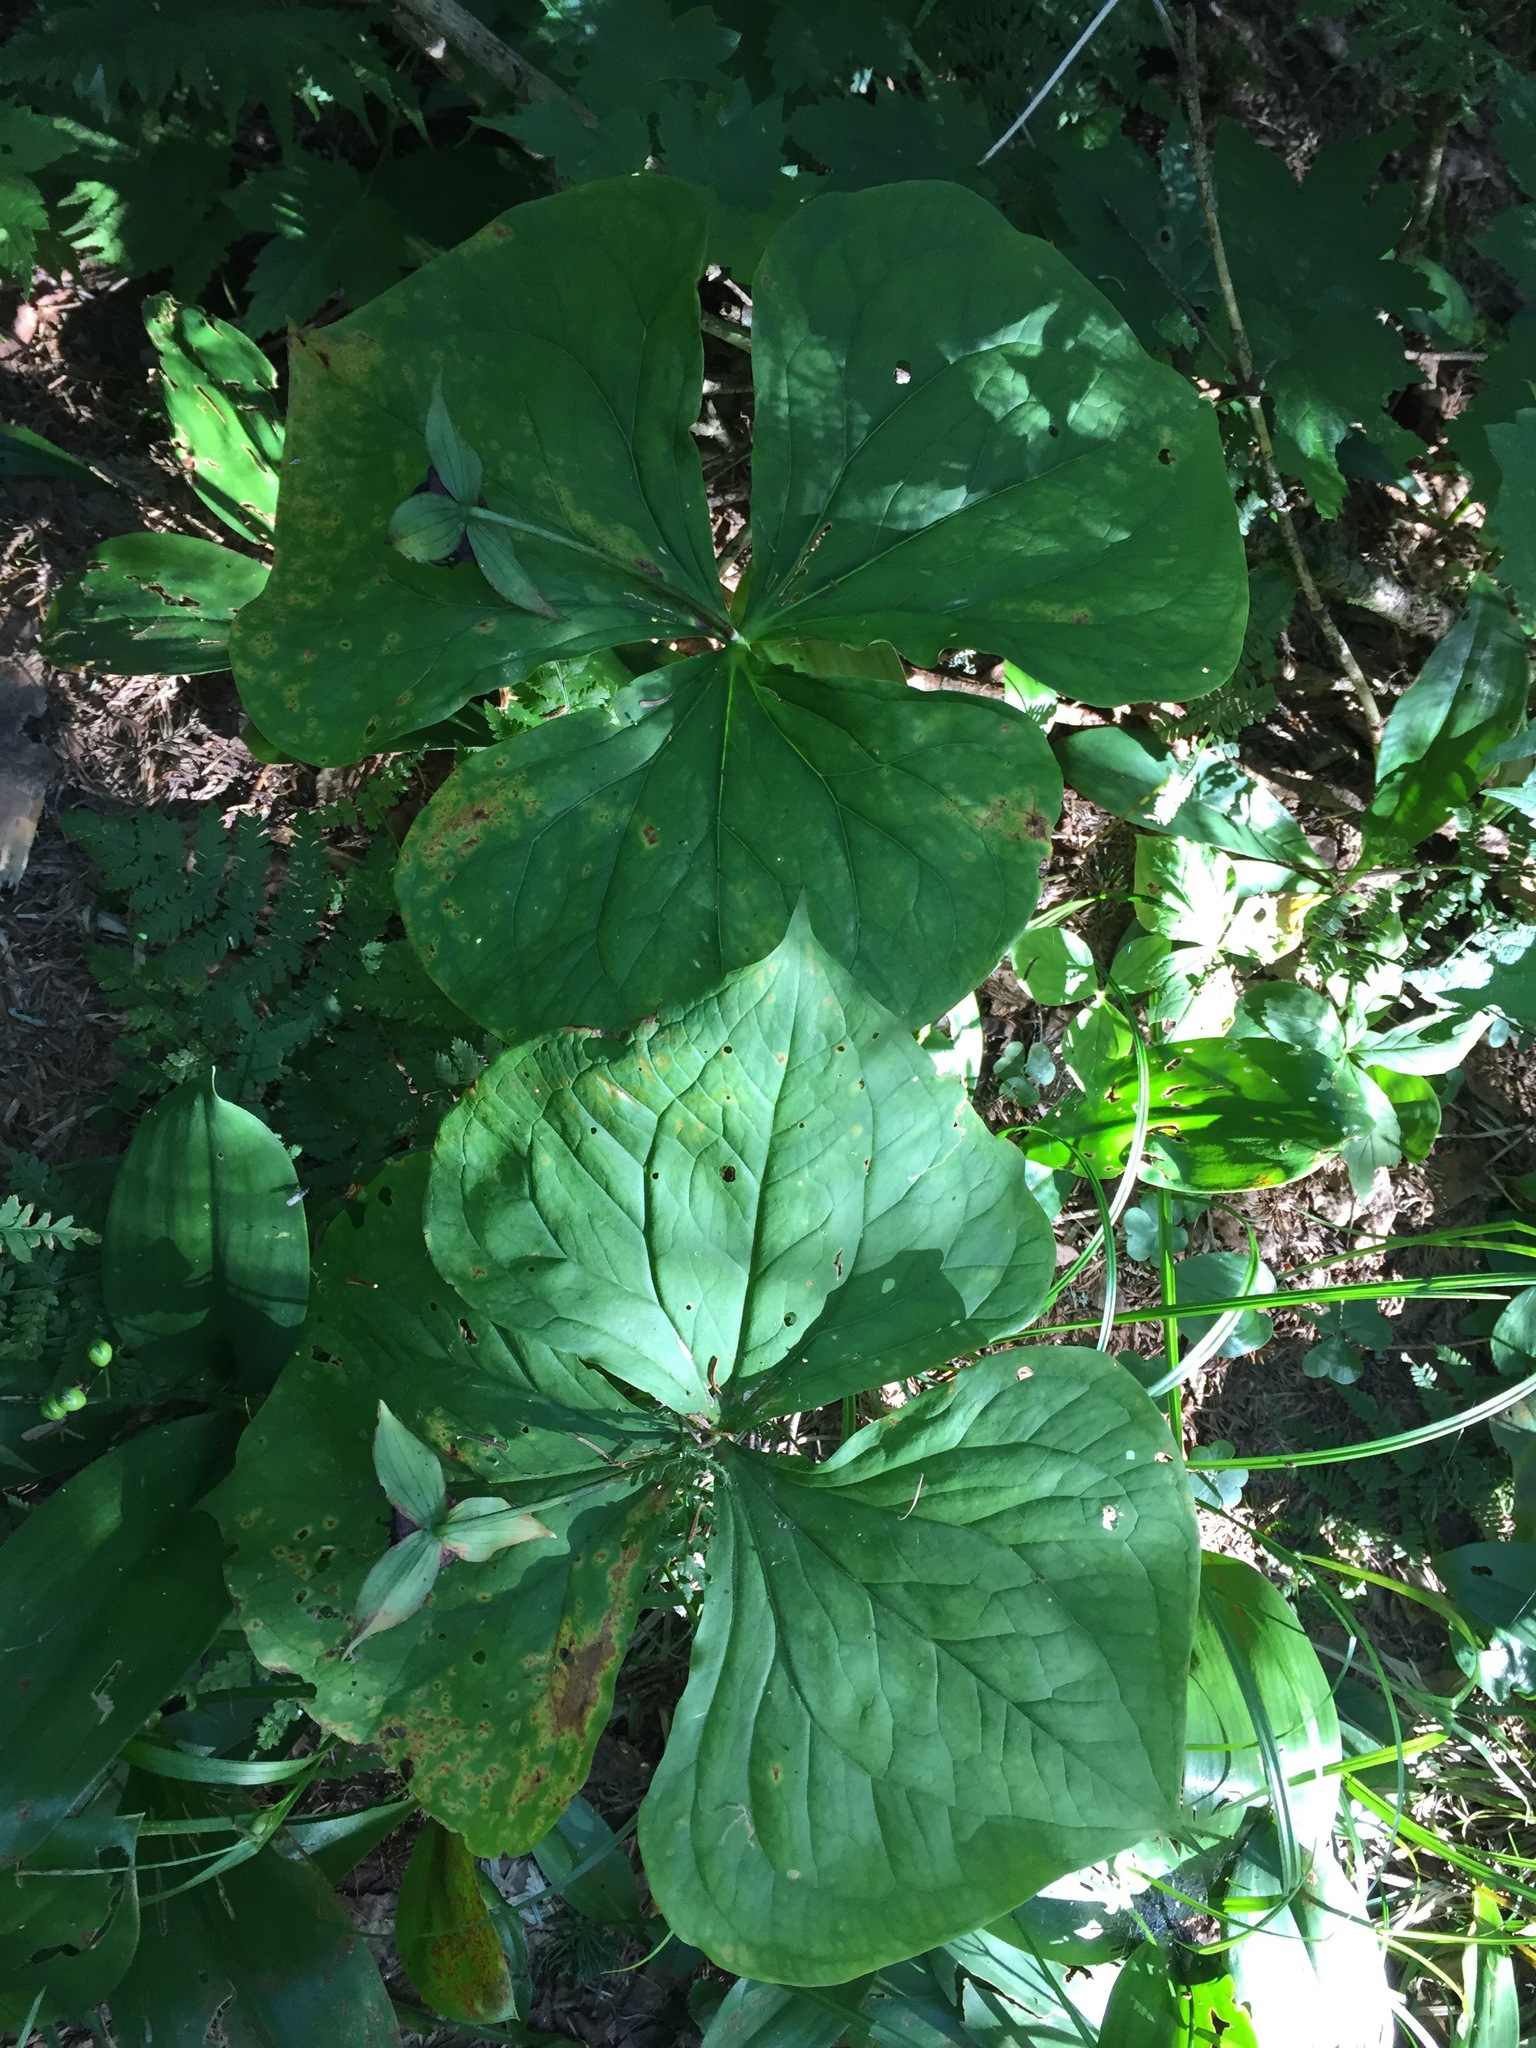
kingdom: Plantae
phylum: Tracheophyta
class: Liliopsida
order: Liliales
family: Melanthiaceae
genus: Trillium
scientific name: Trillium erectum
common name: Purple trillium
